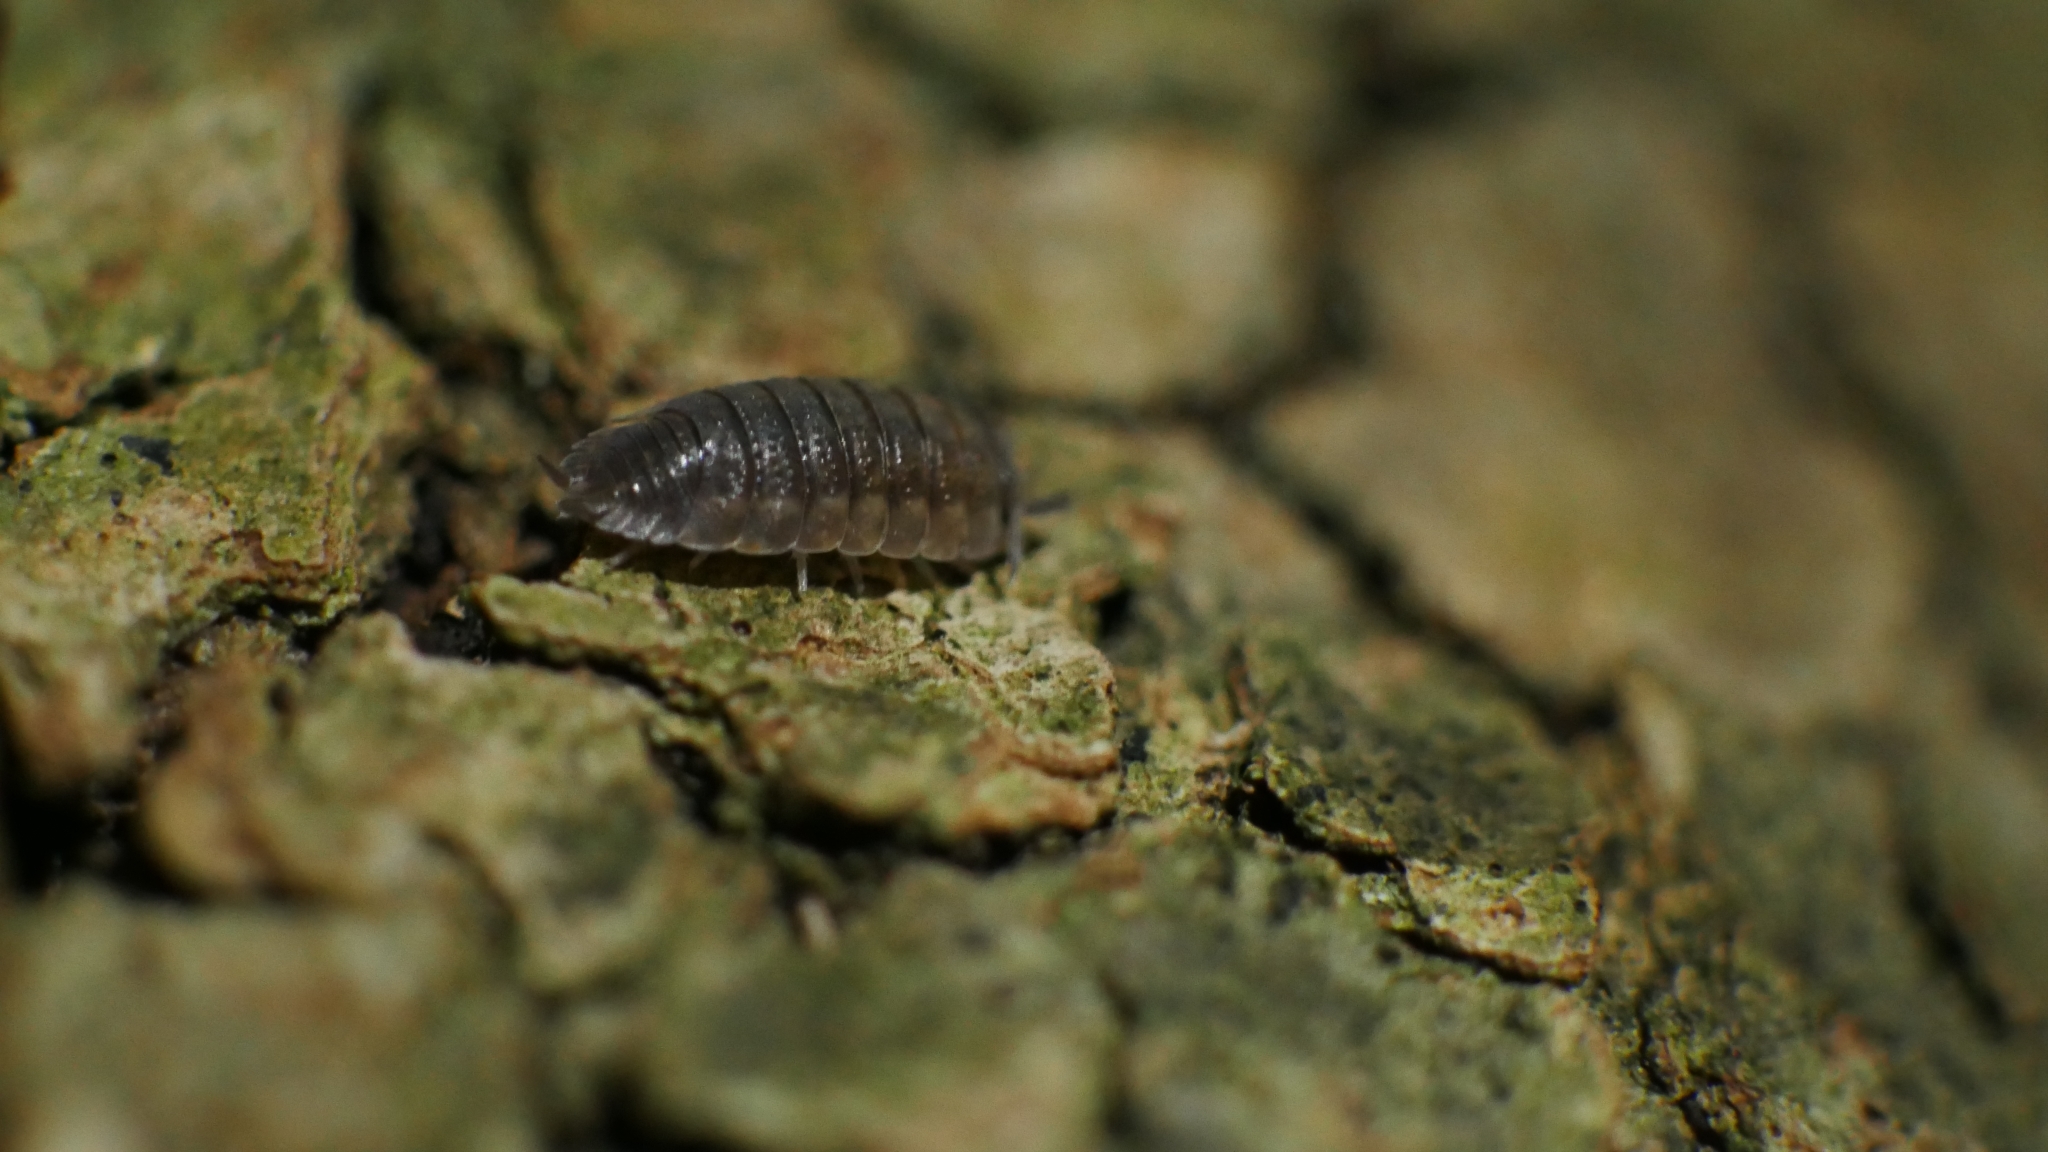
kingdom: Animalia
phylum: Arthropoda
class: Malacostraca
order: Isopoda
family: Porcellionidae
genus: Porcellio
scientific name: Porcellio scaber
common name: Common rough woodlouse
